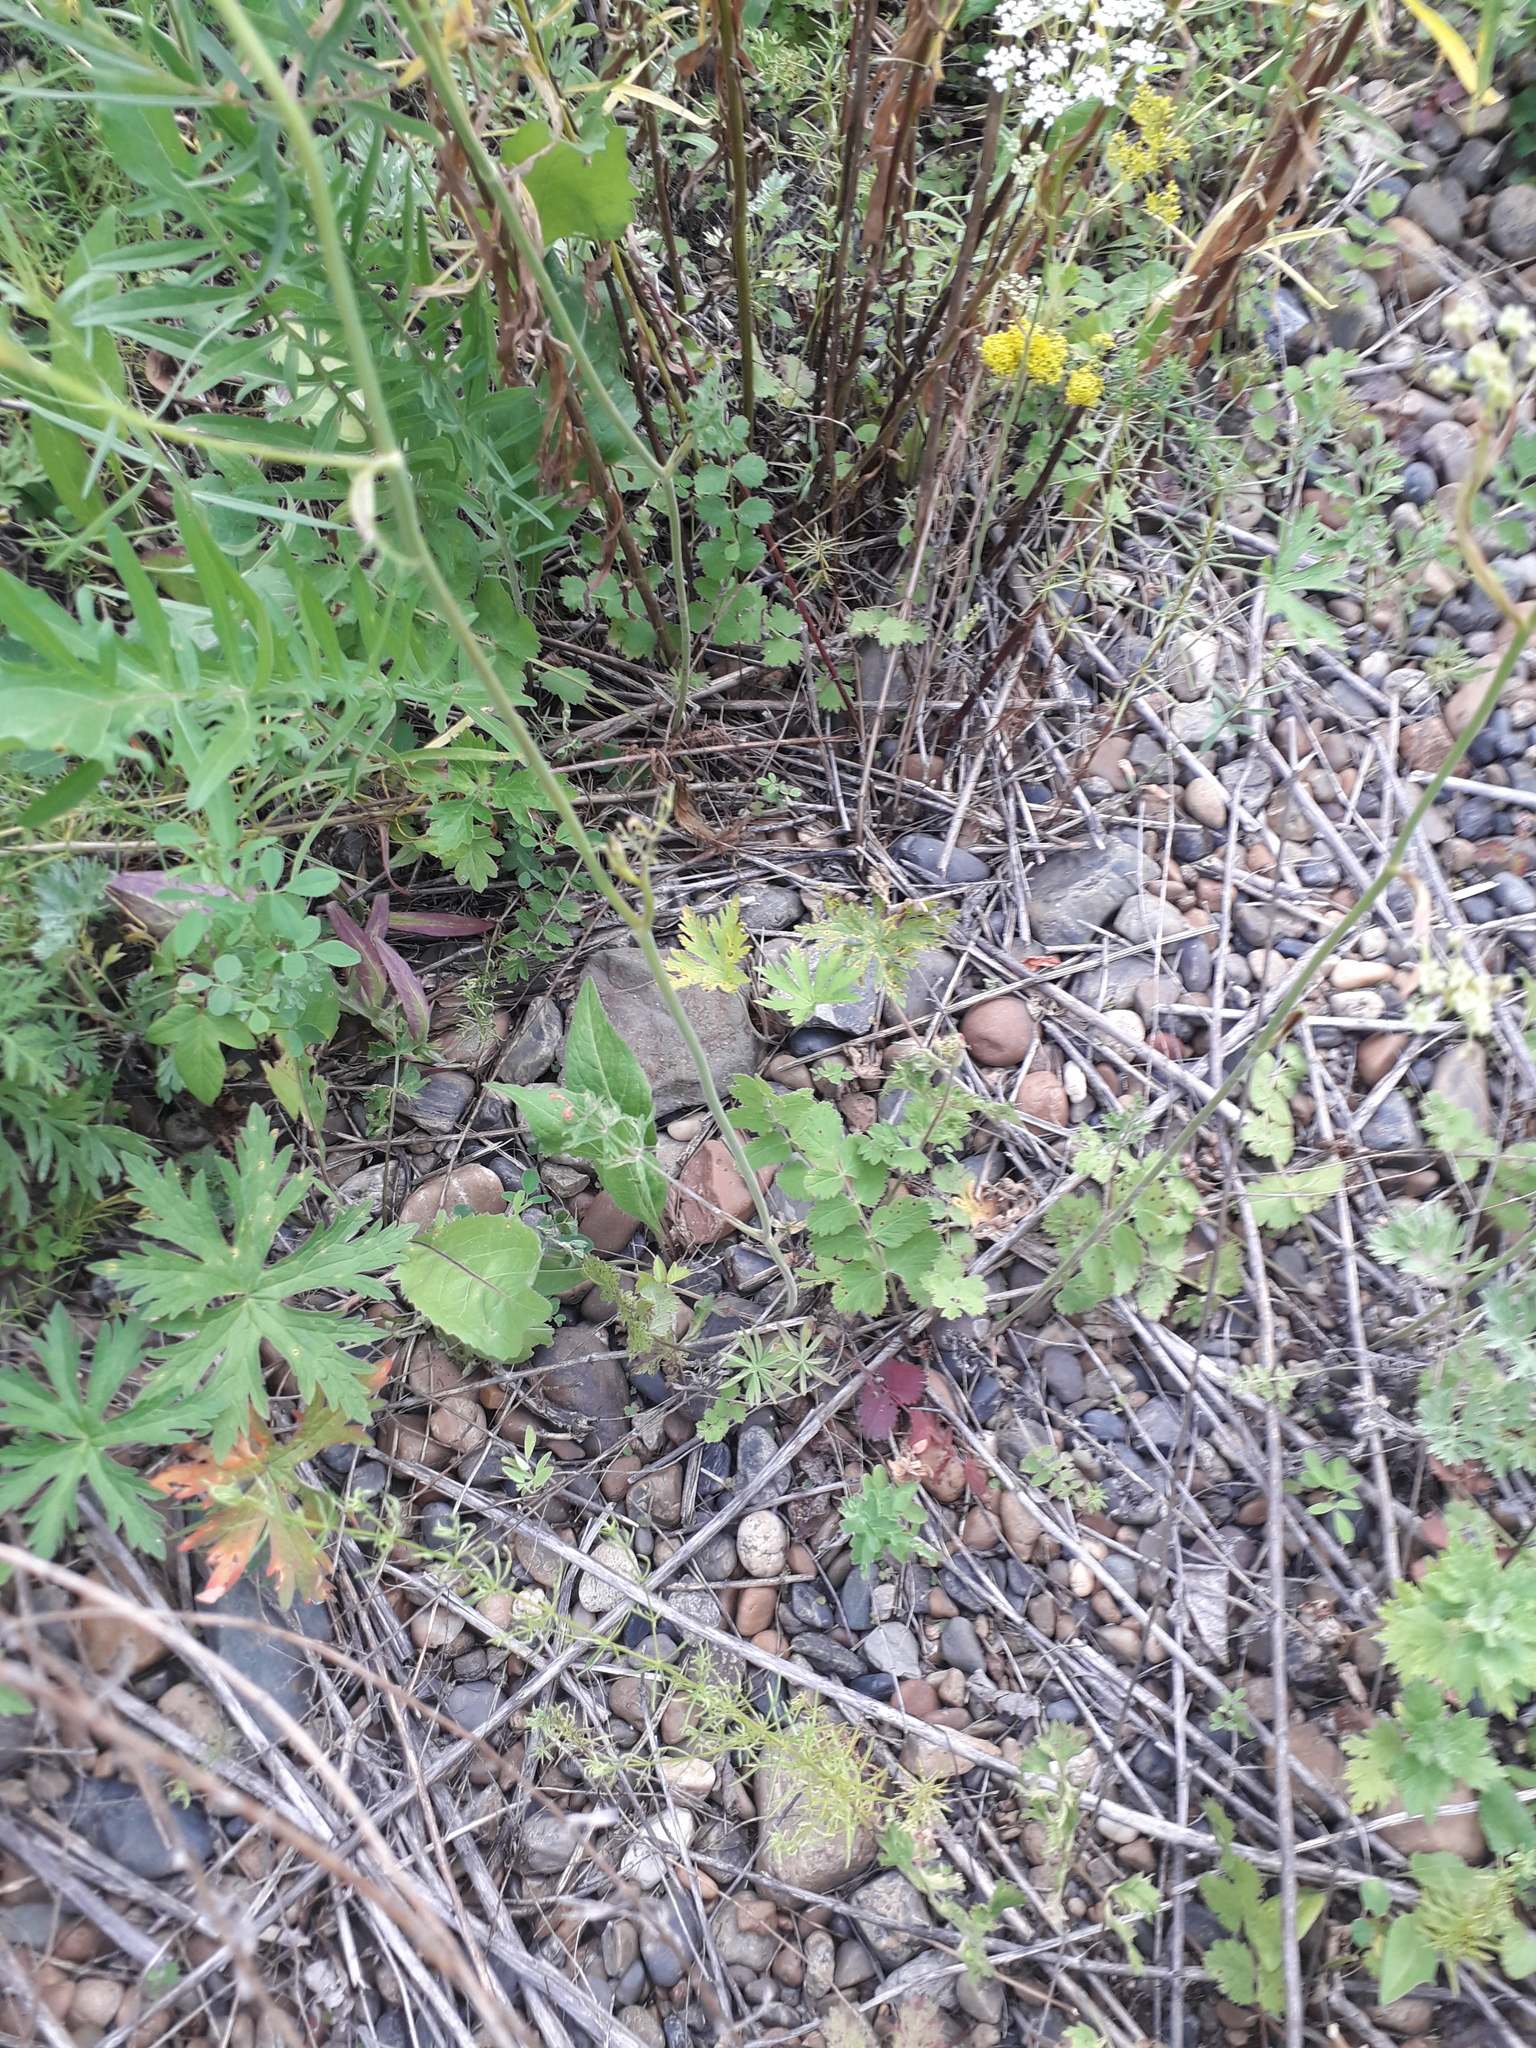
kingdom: Plantae
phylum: Tracheophyta
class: Magnoliopsida
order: Apiales
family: Apiaceae
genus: Pimpinella
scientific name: Pimpinella saxifraga
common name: Burnet-saxifrage
